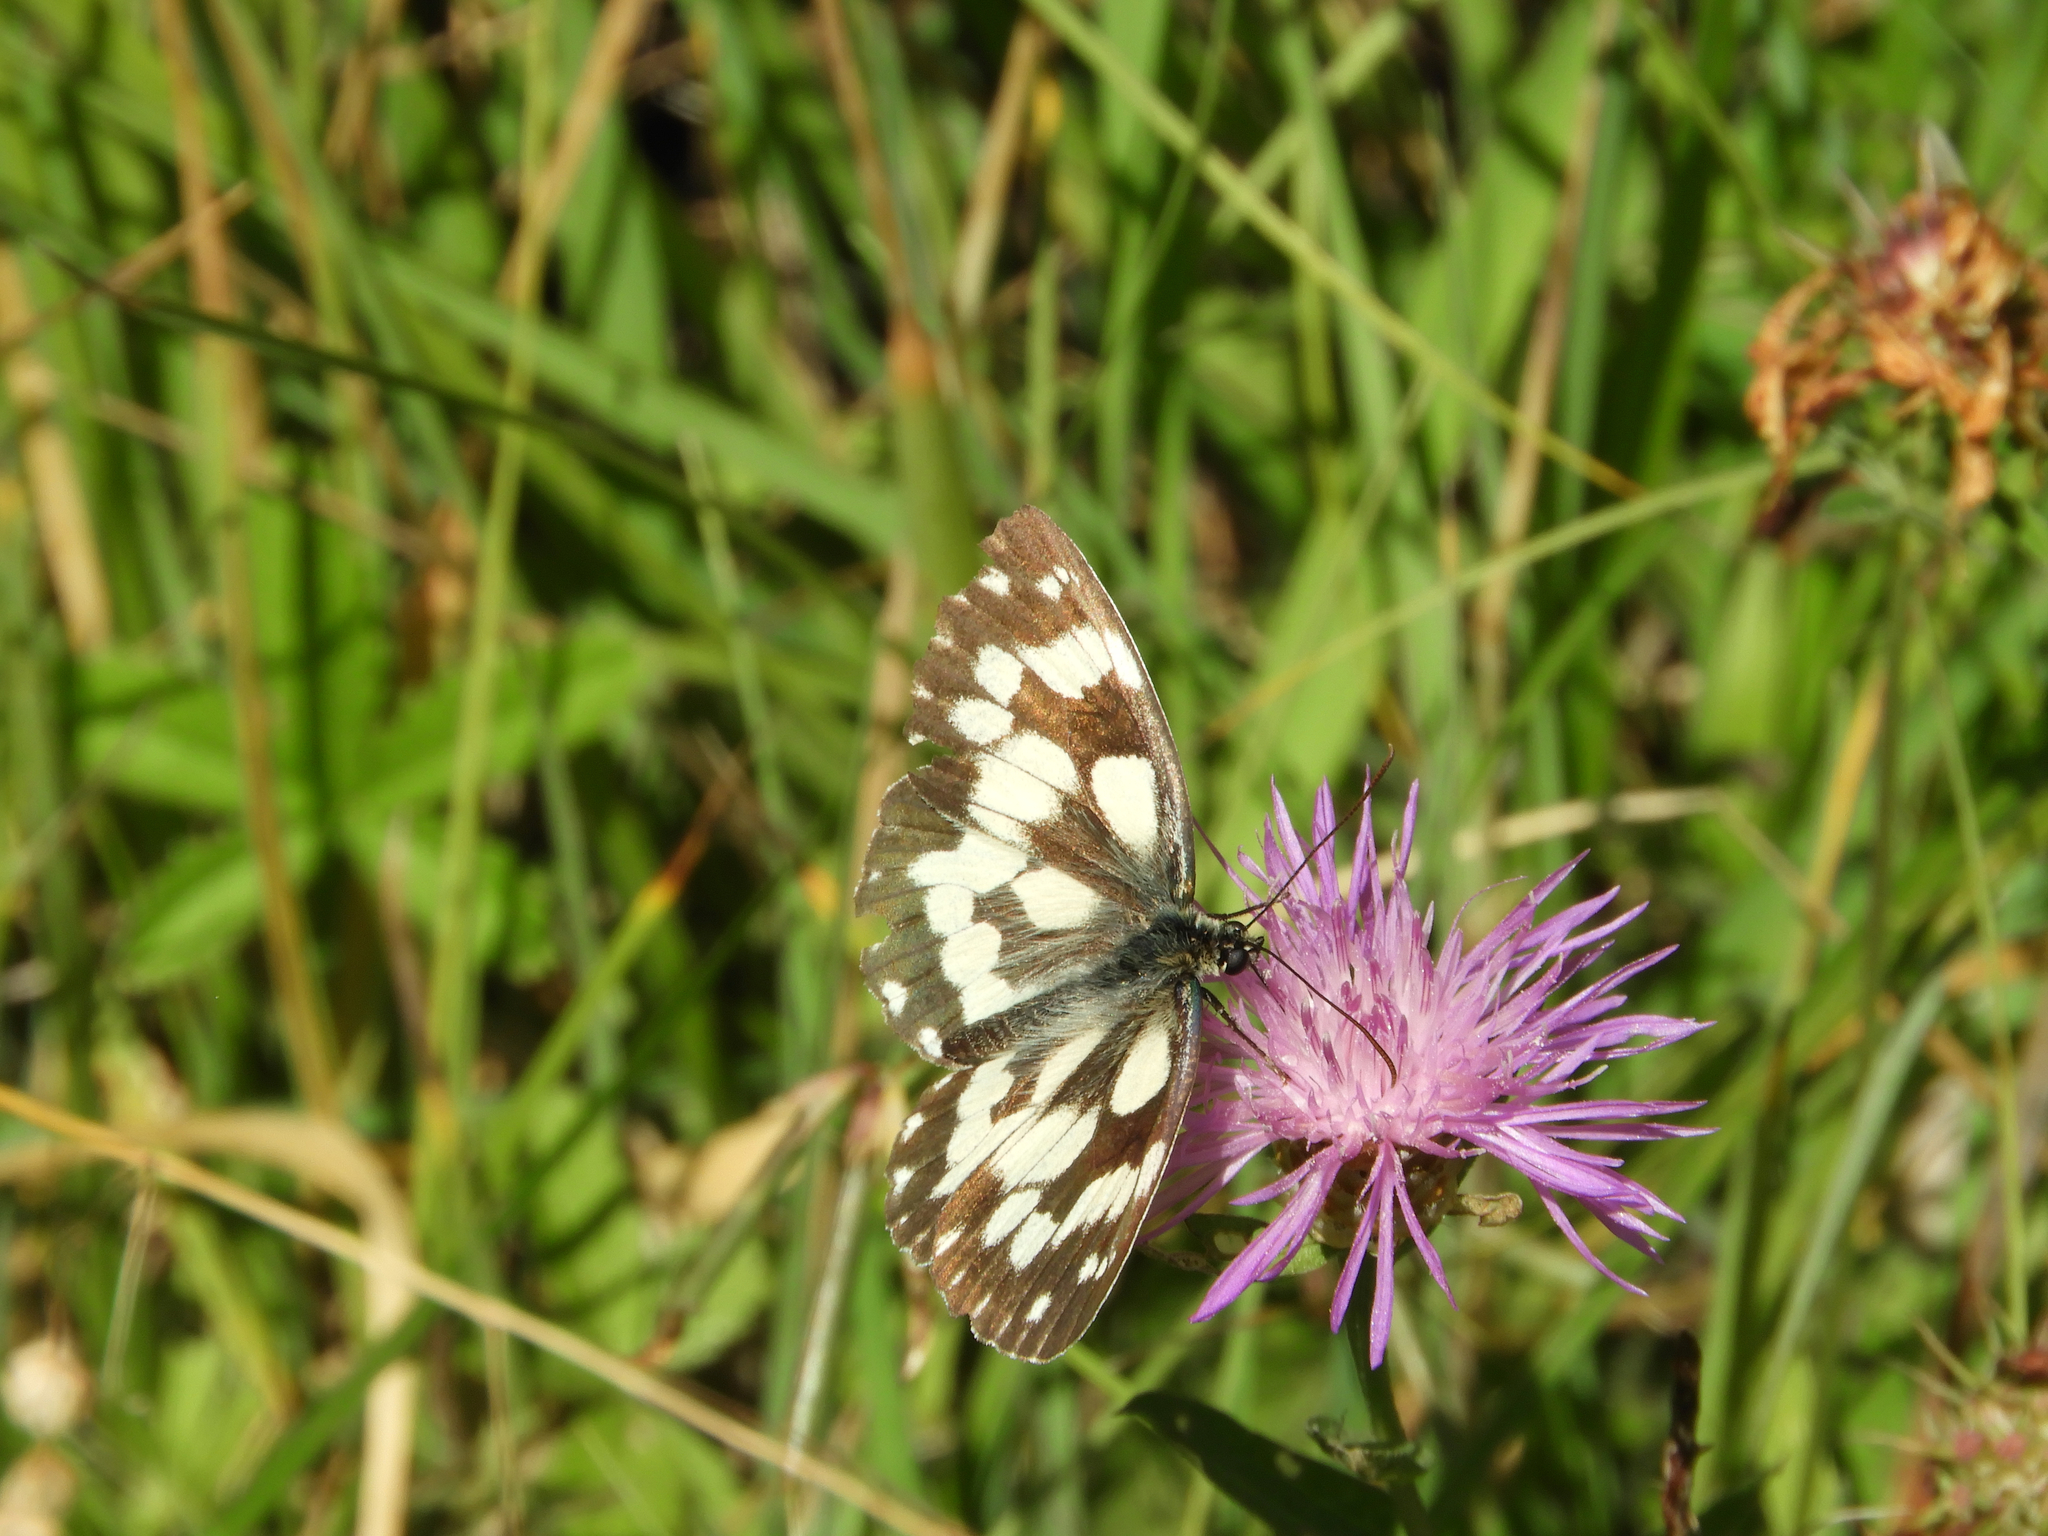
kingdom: Animalia
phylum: Arthropoda
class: Insecta
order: Lepidoptera
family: Nymphalidae
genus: Melanargia
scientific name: Melanargia galathea
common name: Marbled white
